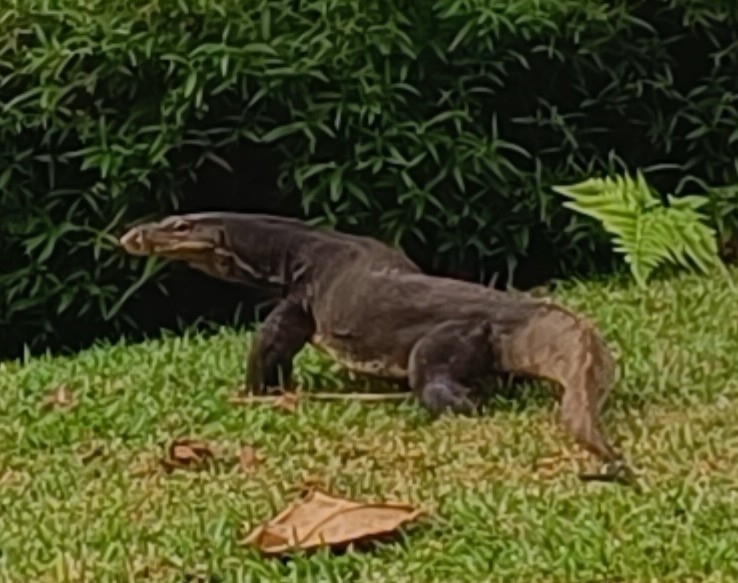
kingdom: Animalia
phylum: Chordata
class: Squamata
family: Varanidae
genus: Varanus
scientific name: Varanus salvator
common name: Common water monitor
